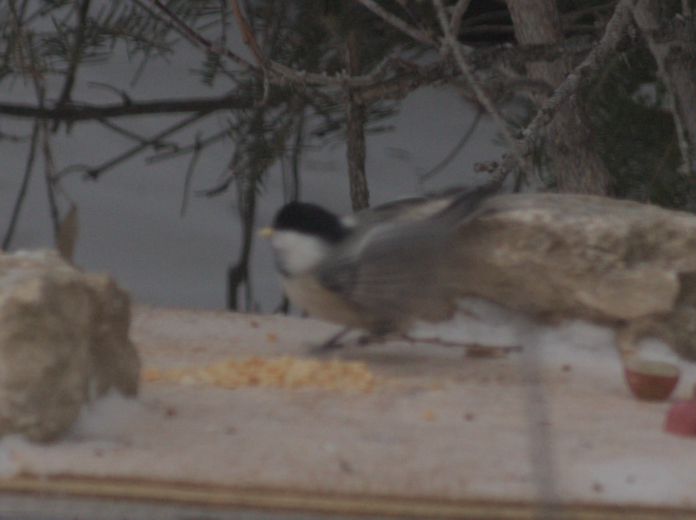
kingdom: Animalia
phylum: Chordata
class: Aves
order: Passeriformes
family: Paridae
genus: Poecile
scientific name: Poecile atricapillus
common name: Black-capped chickadee
